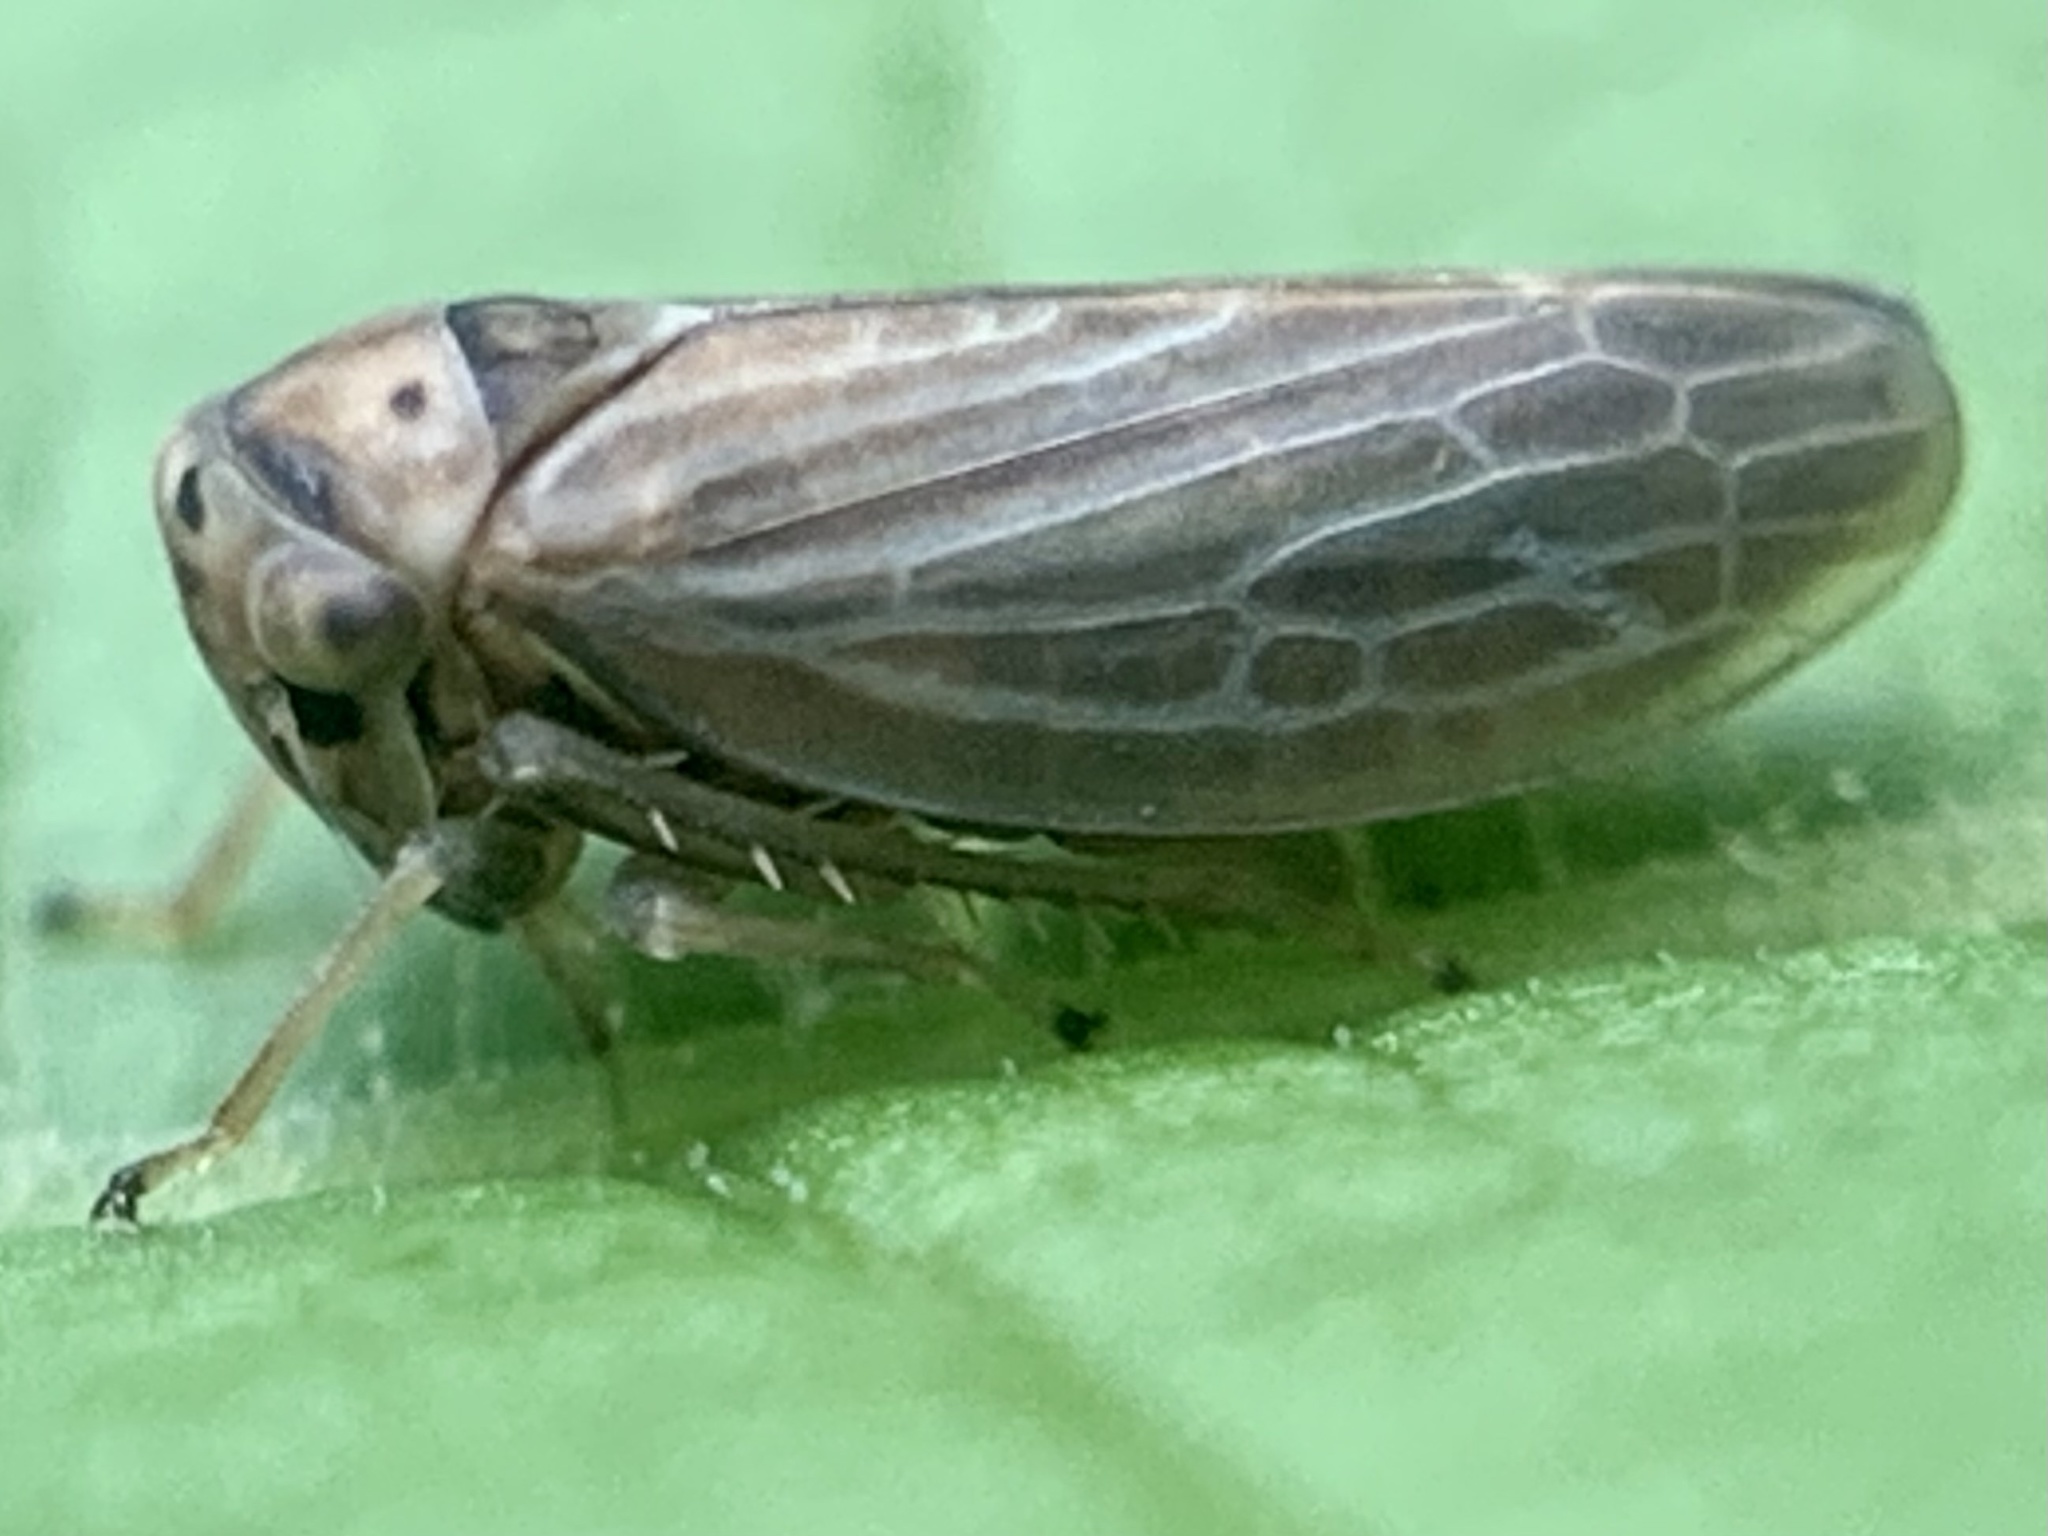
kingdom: Animalia
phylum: Arthropoda
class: Insecta
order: Hemiptera
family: Cicadellidae
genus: Agalliota
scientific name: Agalliota quadripunctata
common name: The four-spotted clover leafhopper
